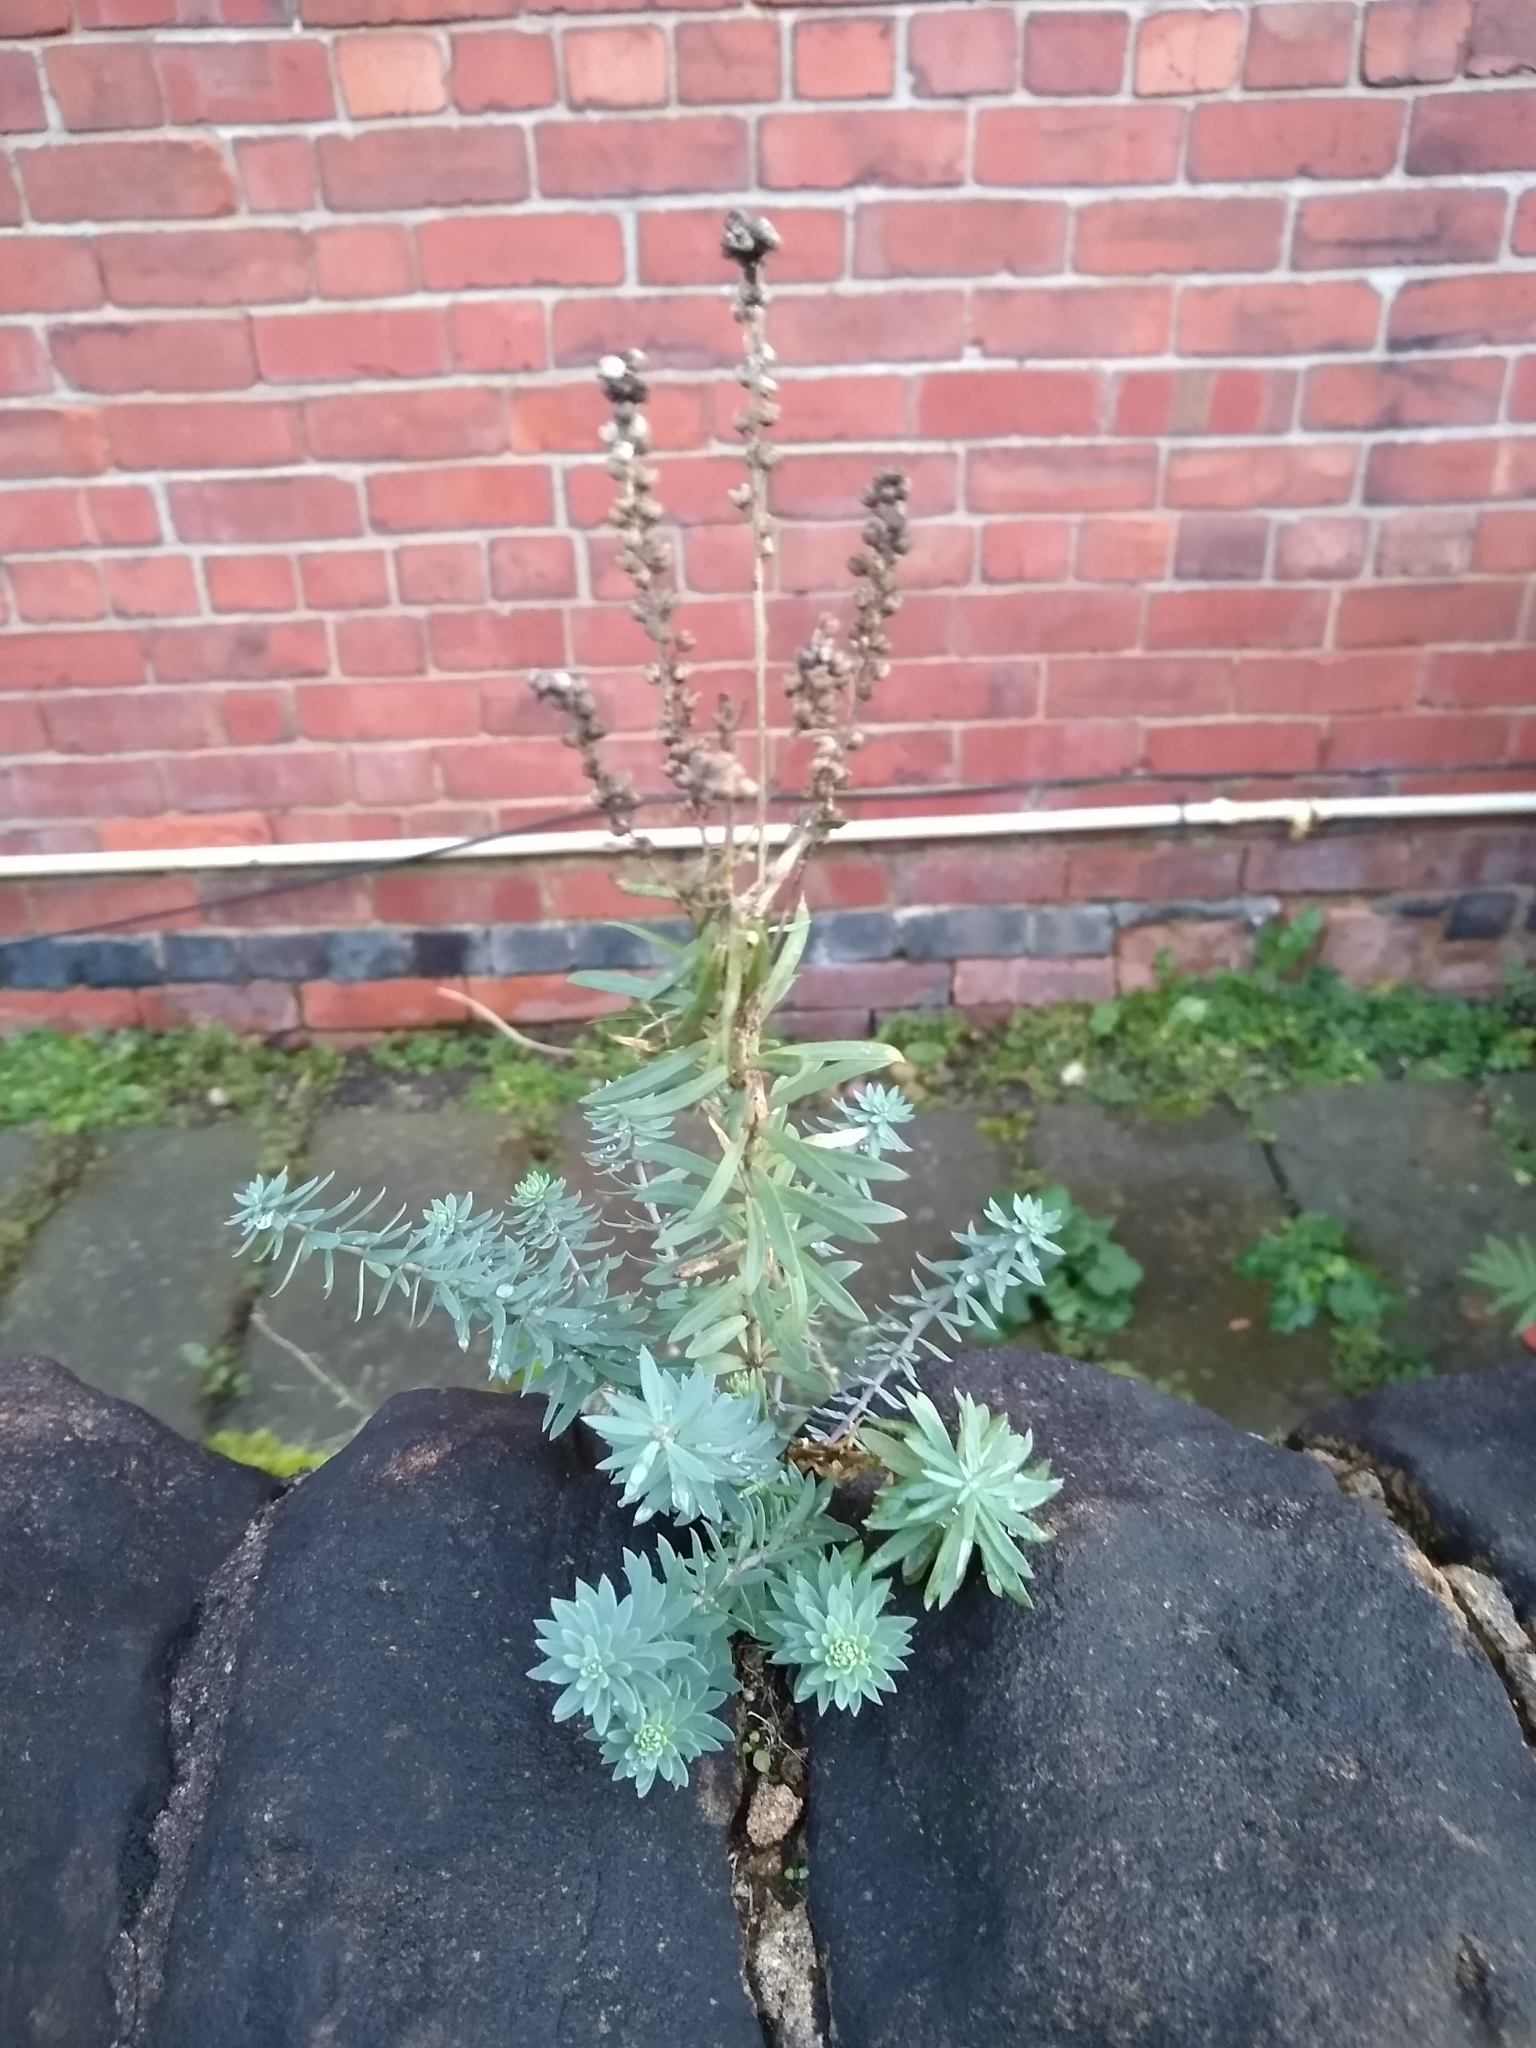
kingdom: Plantae
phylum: Tracheophyta
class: Magnoliopsida
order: Lamiales
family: Plantaginaceae
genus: Linaria
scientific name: Linaria purpurea
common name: Purple toadflax
